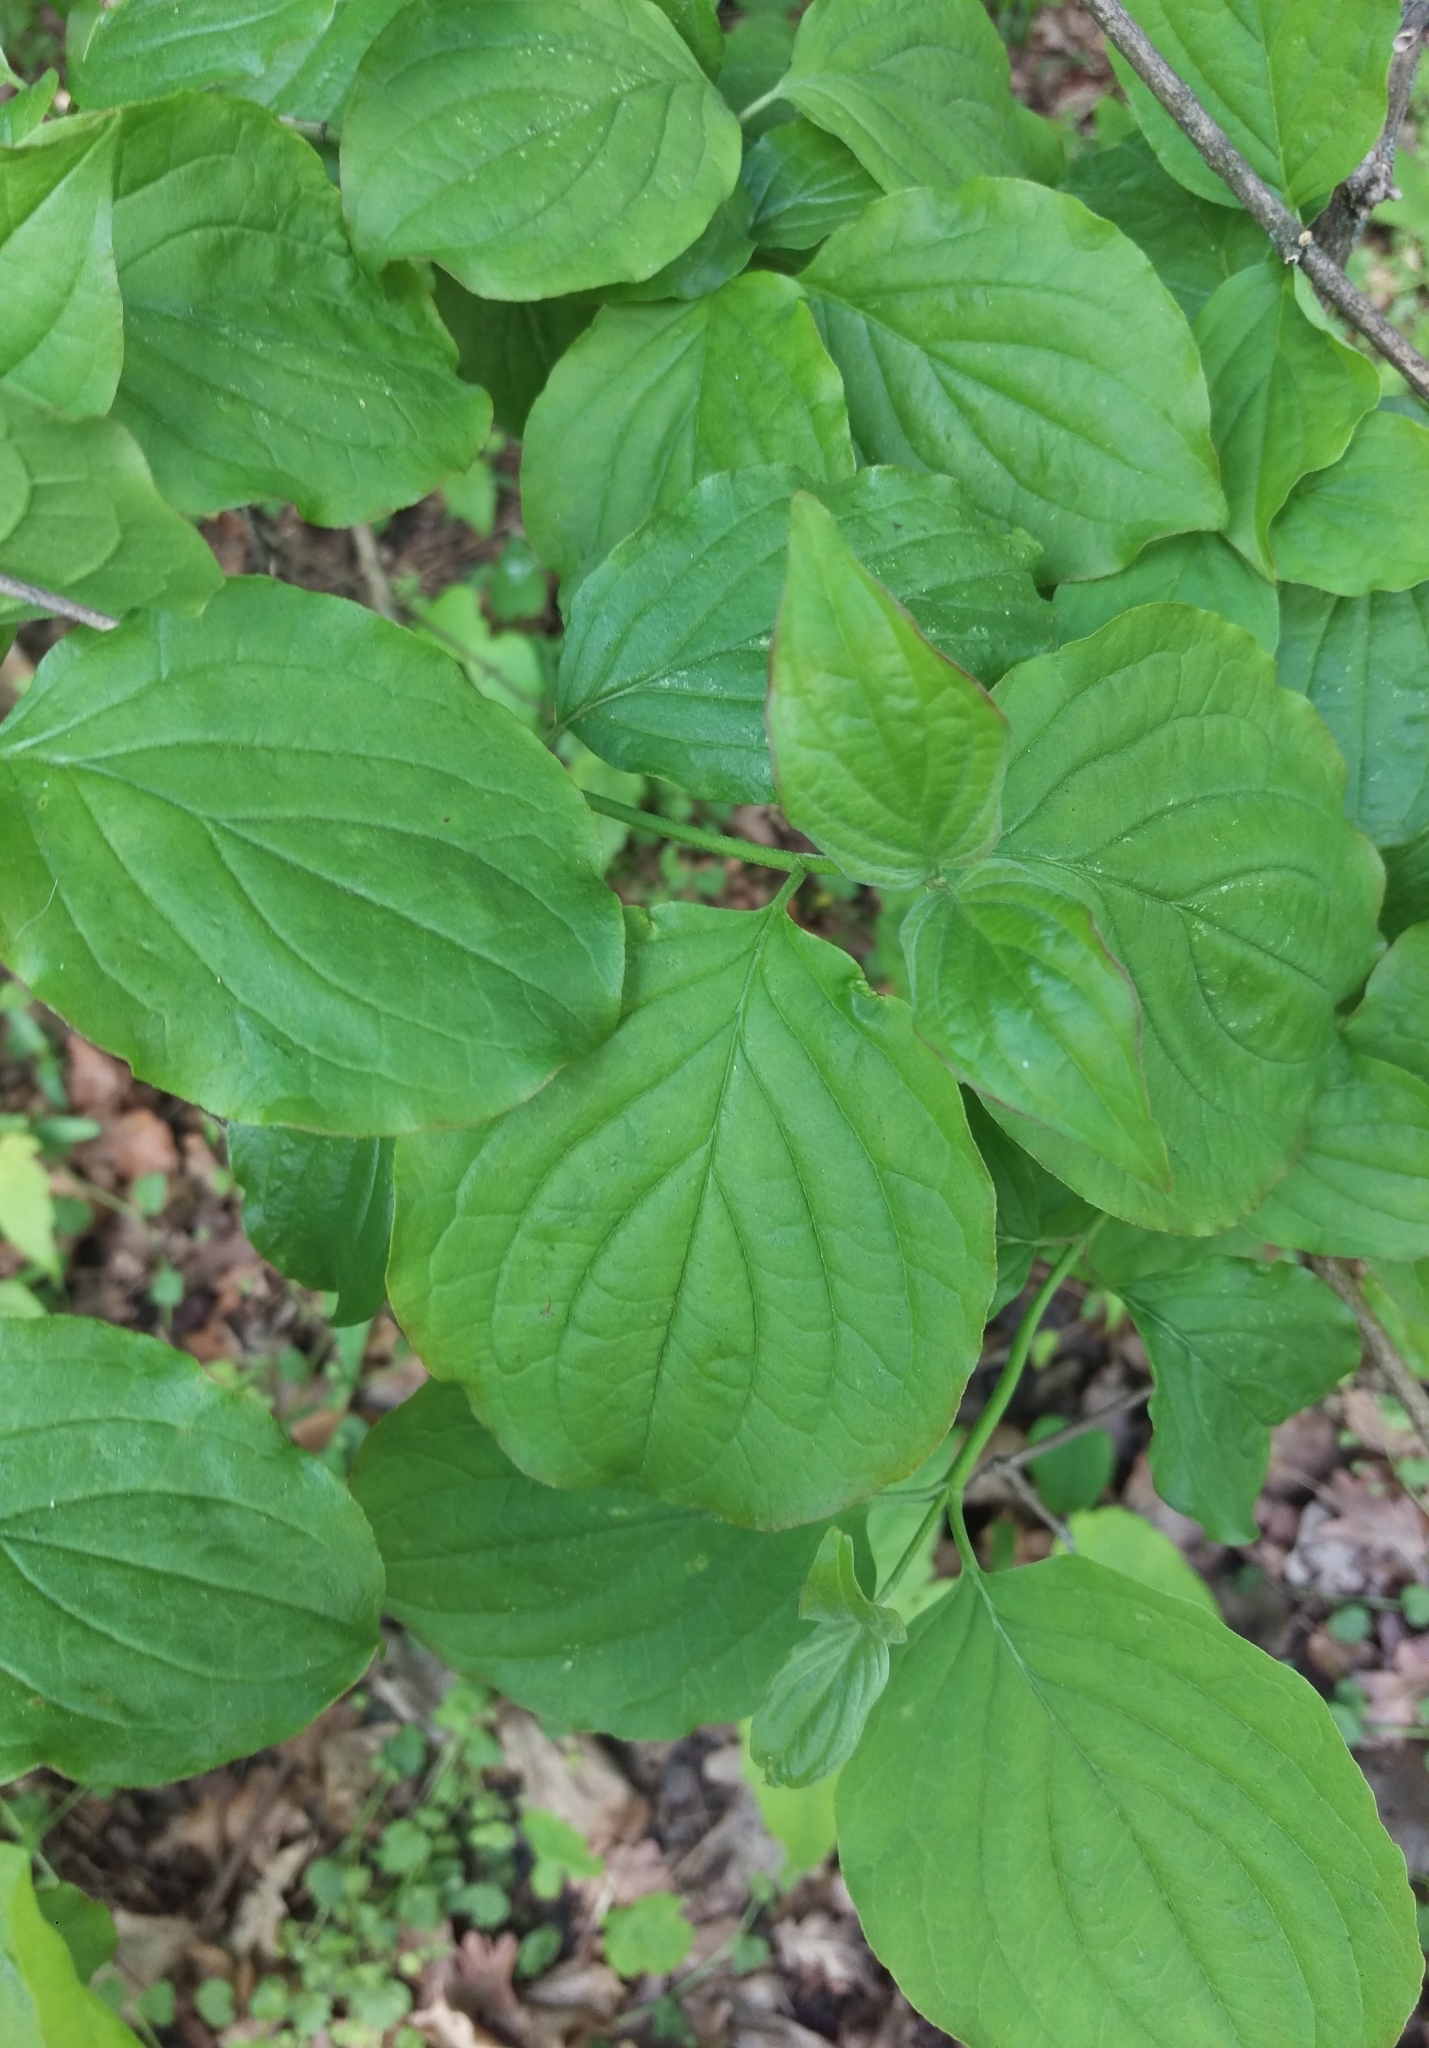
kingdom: Plantae
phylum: Tracheophyta
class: Magnoliopsida
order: Cornales
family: Cornaceae
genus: Cornus
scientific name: Cornus sanguinea
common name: Dogwood
